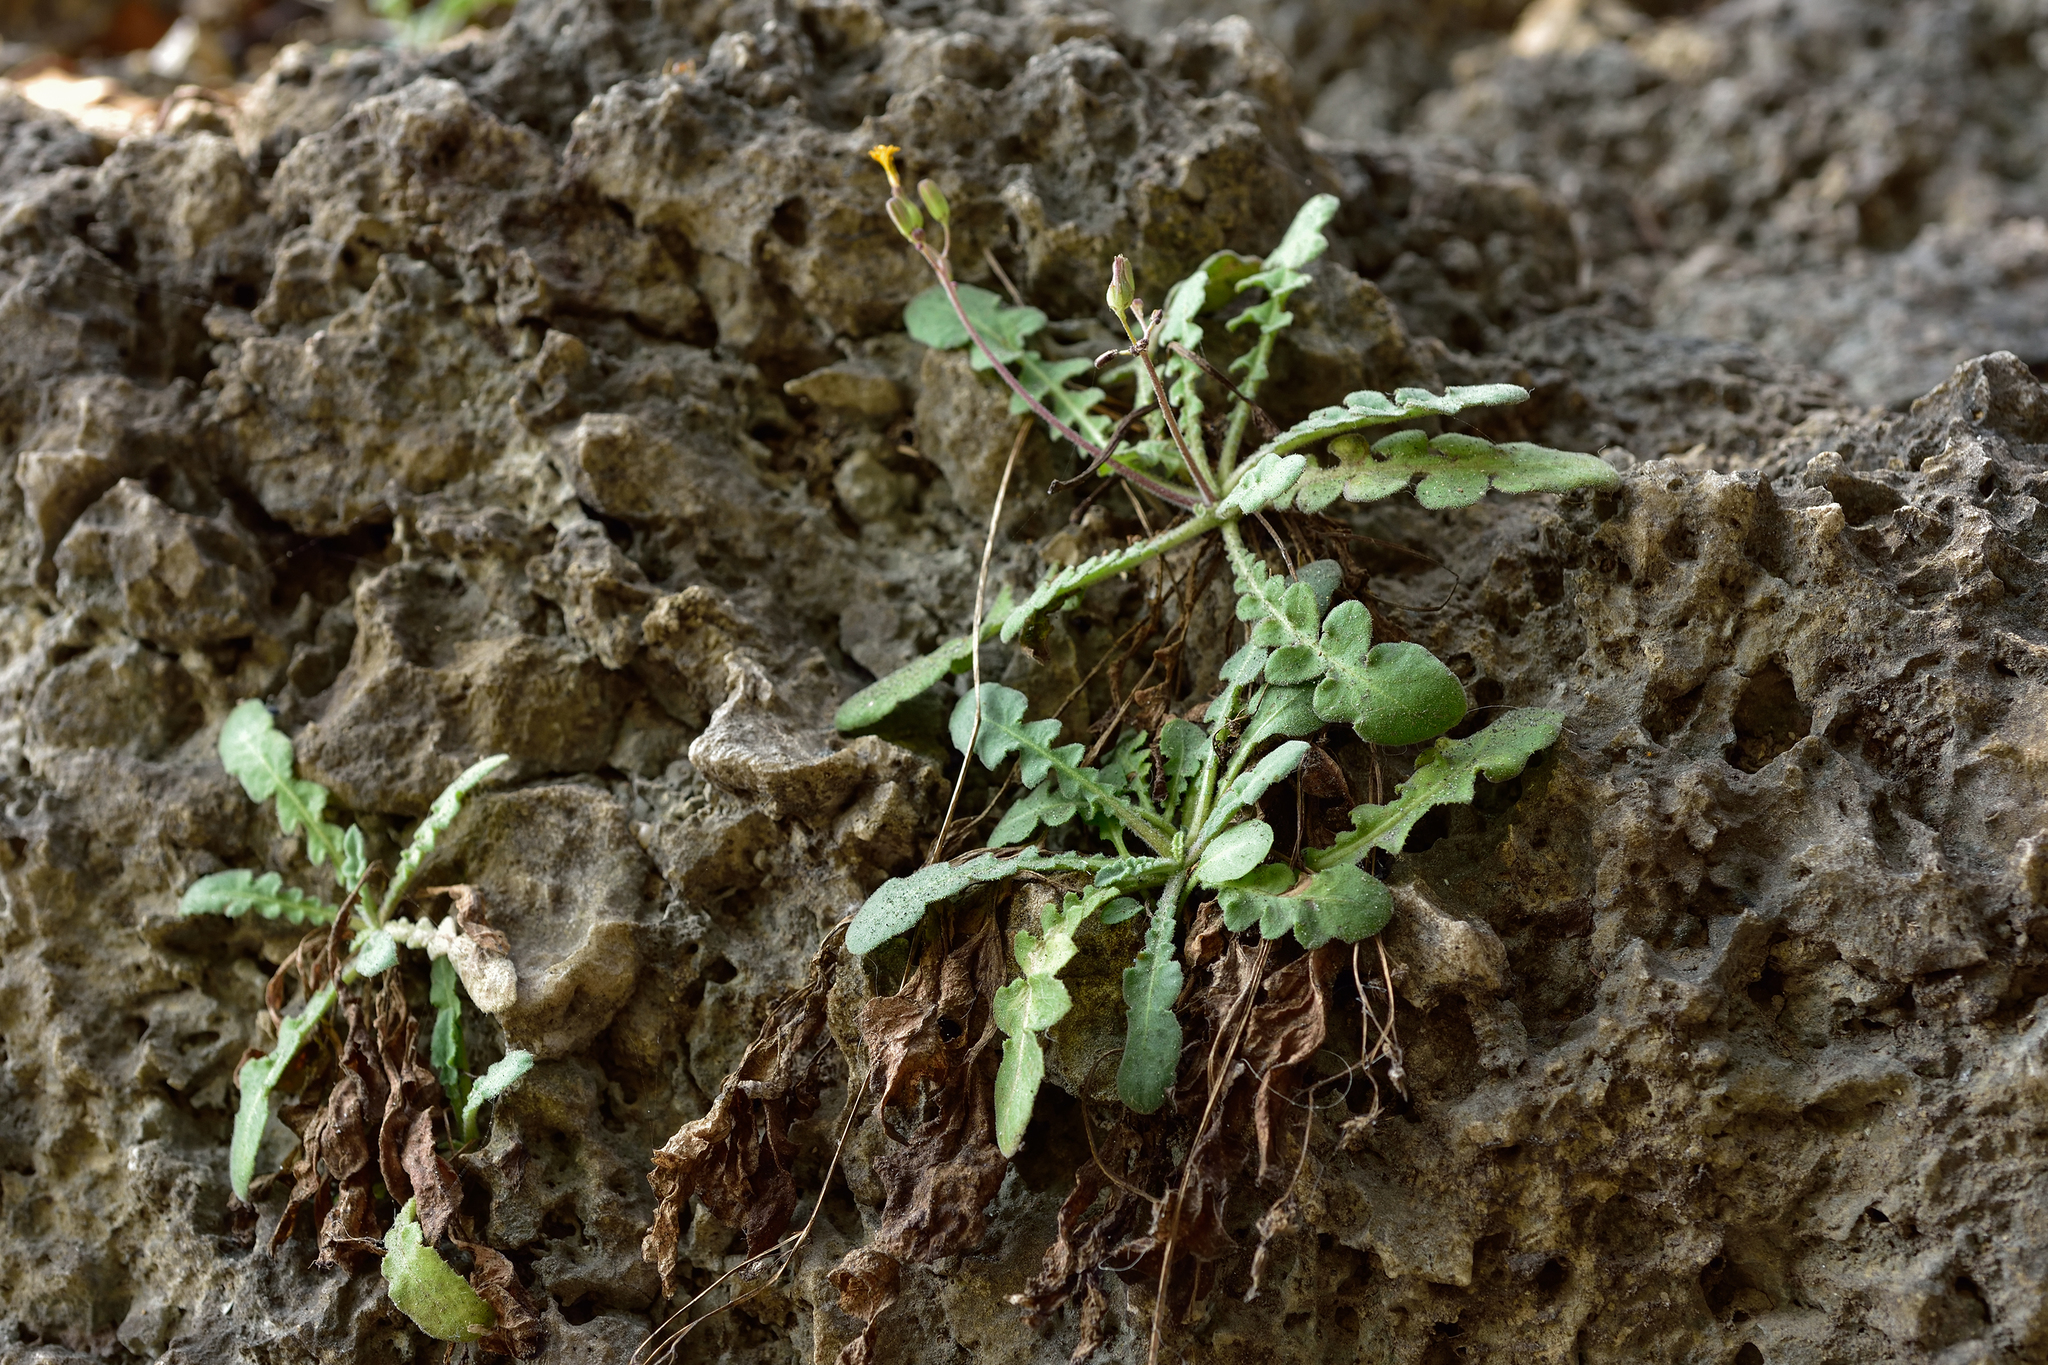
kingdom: Plantae
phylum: Tracheophyta
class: Magnoliopsida
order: Asterales
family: Asteraceae
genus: Youngia
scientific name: Youngia japonica
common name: Oriental false hawksbeard
